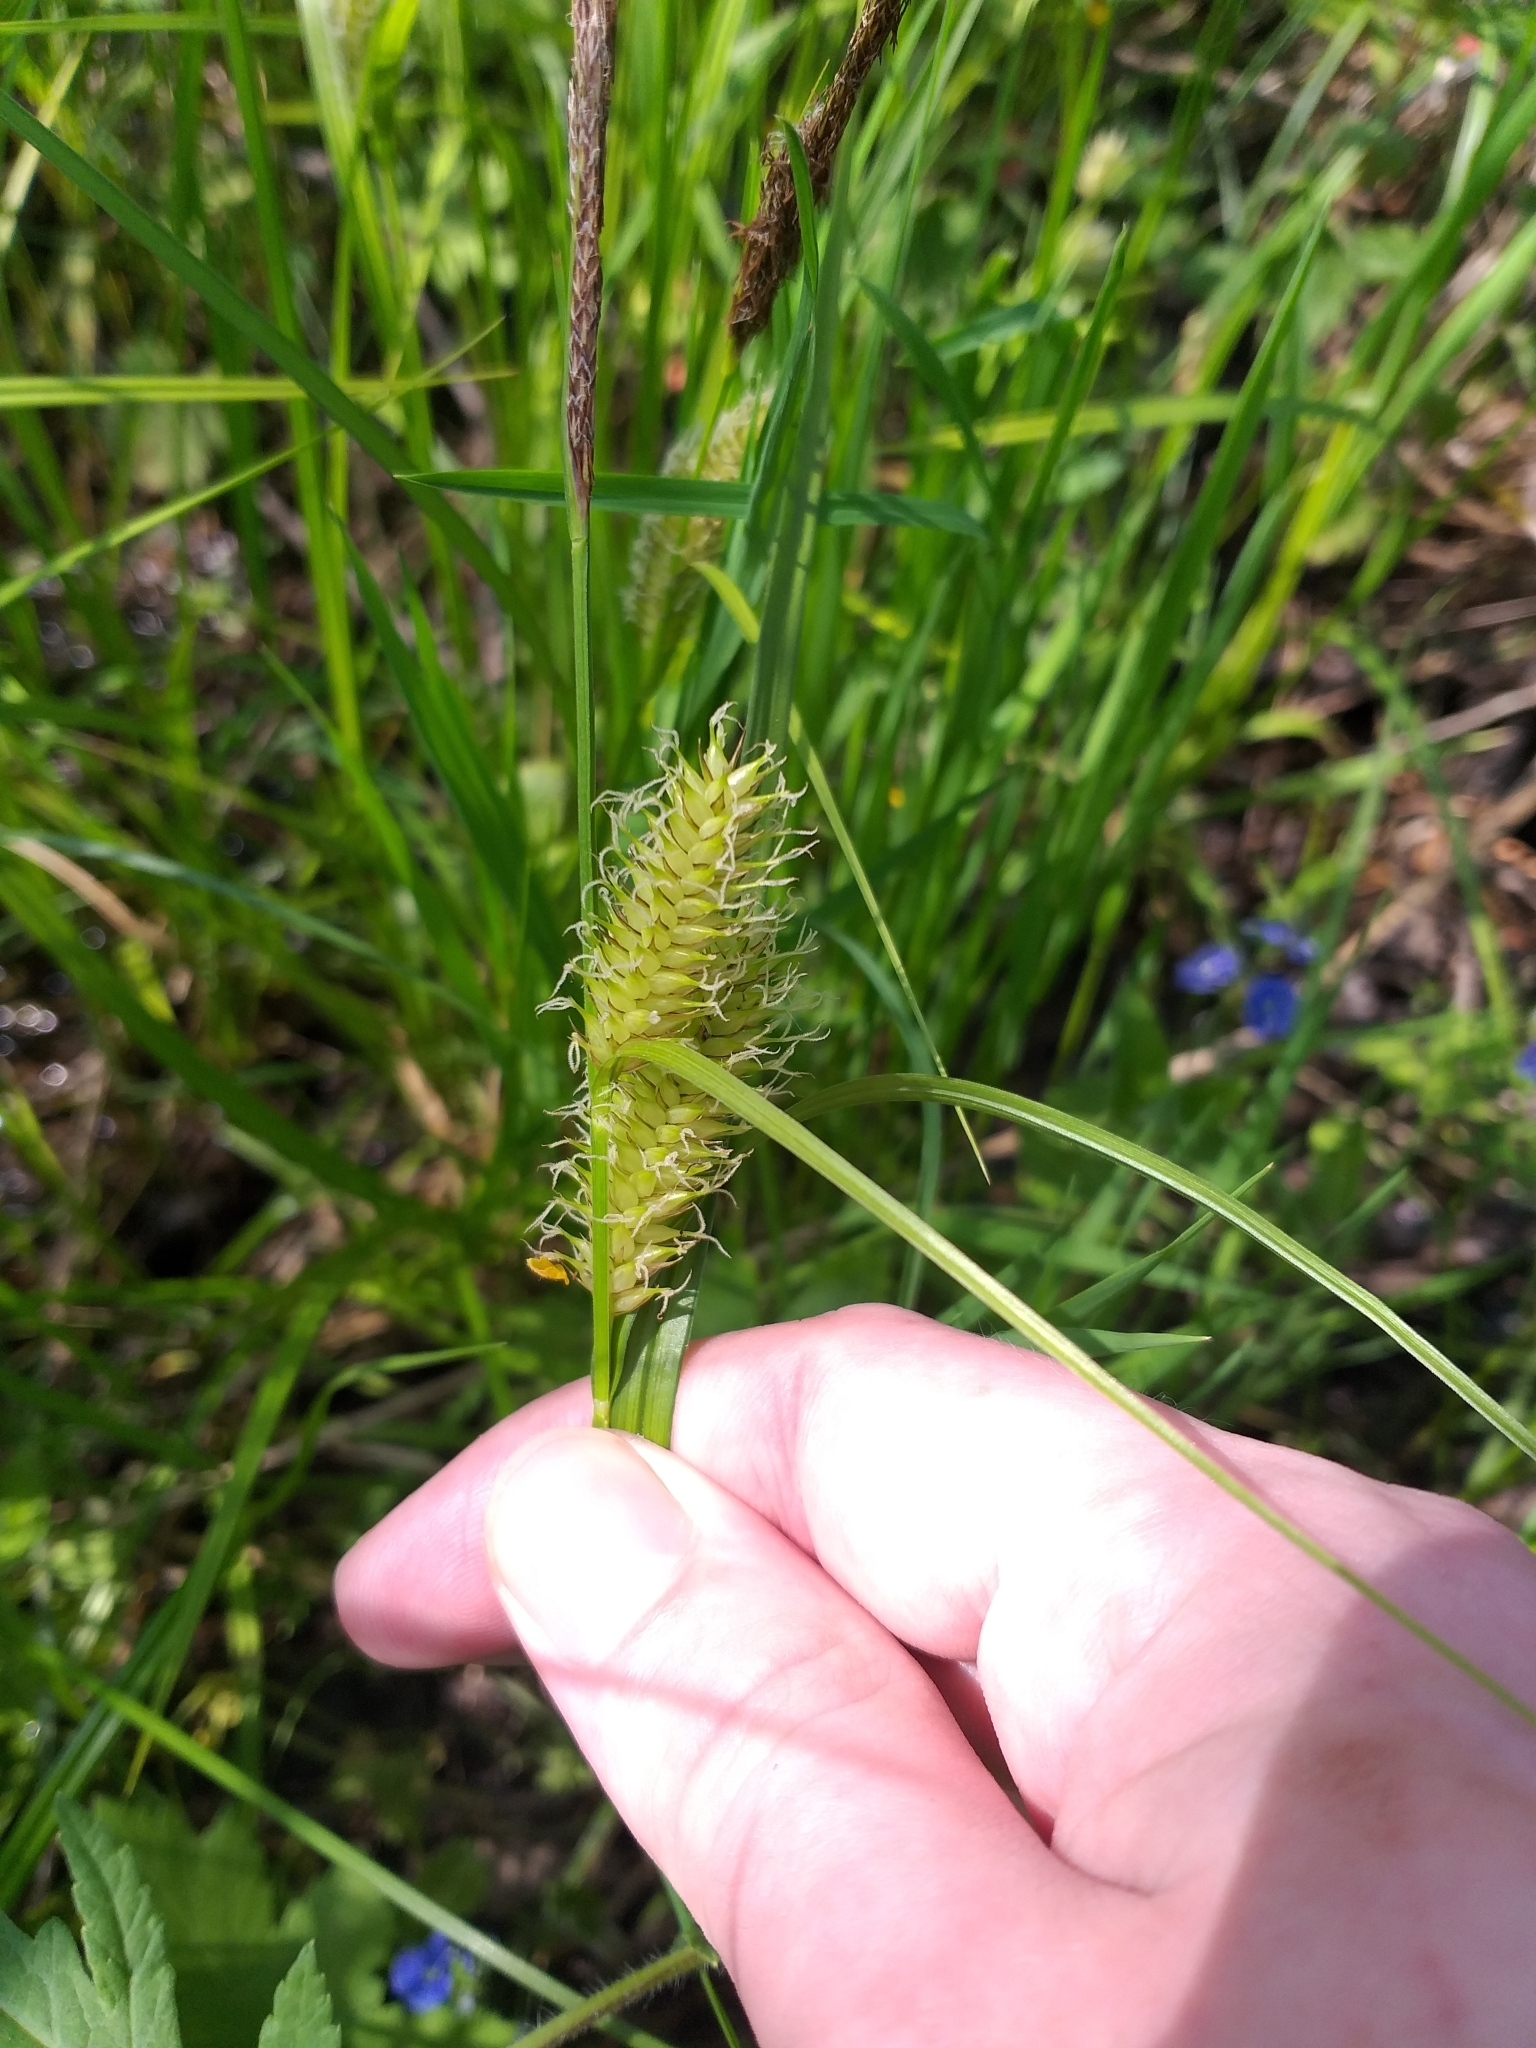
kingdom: Plantae
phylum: Tracheophyta
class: Liliopsida
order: Poales
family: Cyperaceae
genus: Carex
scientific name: Carex vesicaria
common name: Bladder-sedge
